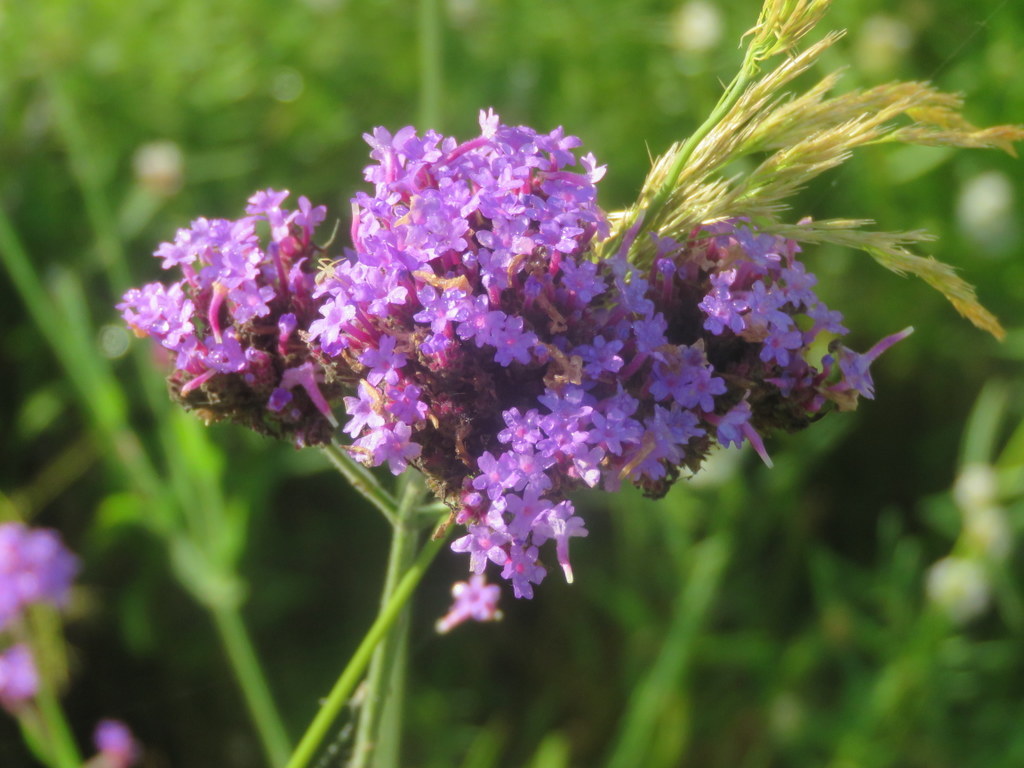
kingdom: Plantae
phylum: Tracheophyta
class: Magnoliopsida
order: Lamiales
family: Verbenaceae
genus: Verbena
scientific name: Verbena bonariensis
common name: Purpletop vervain
